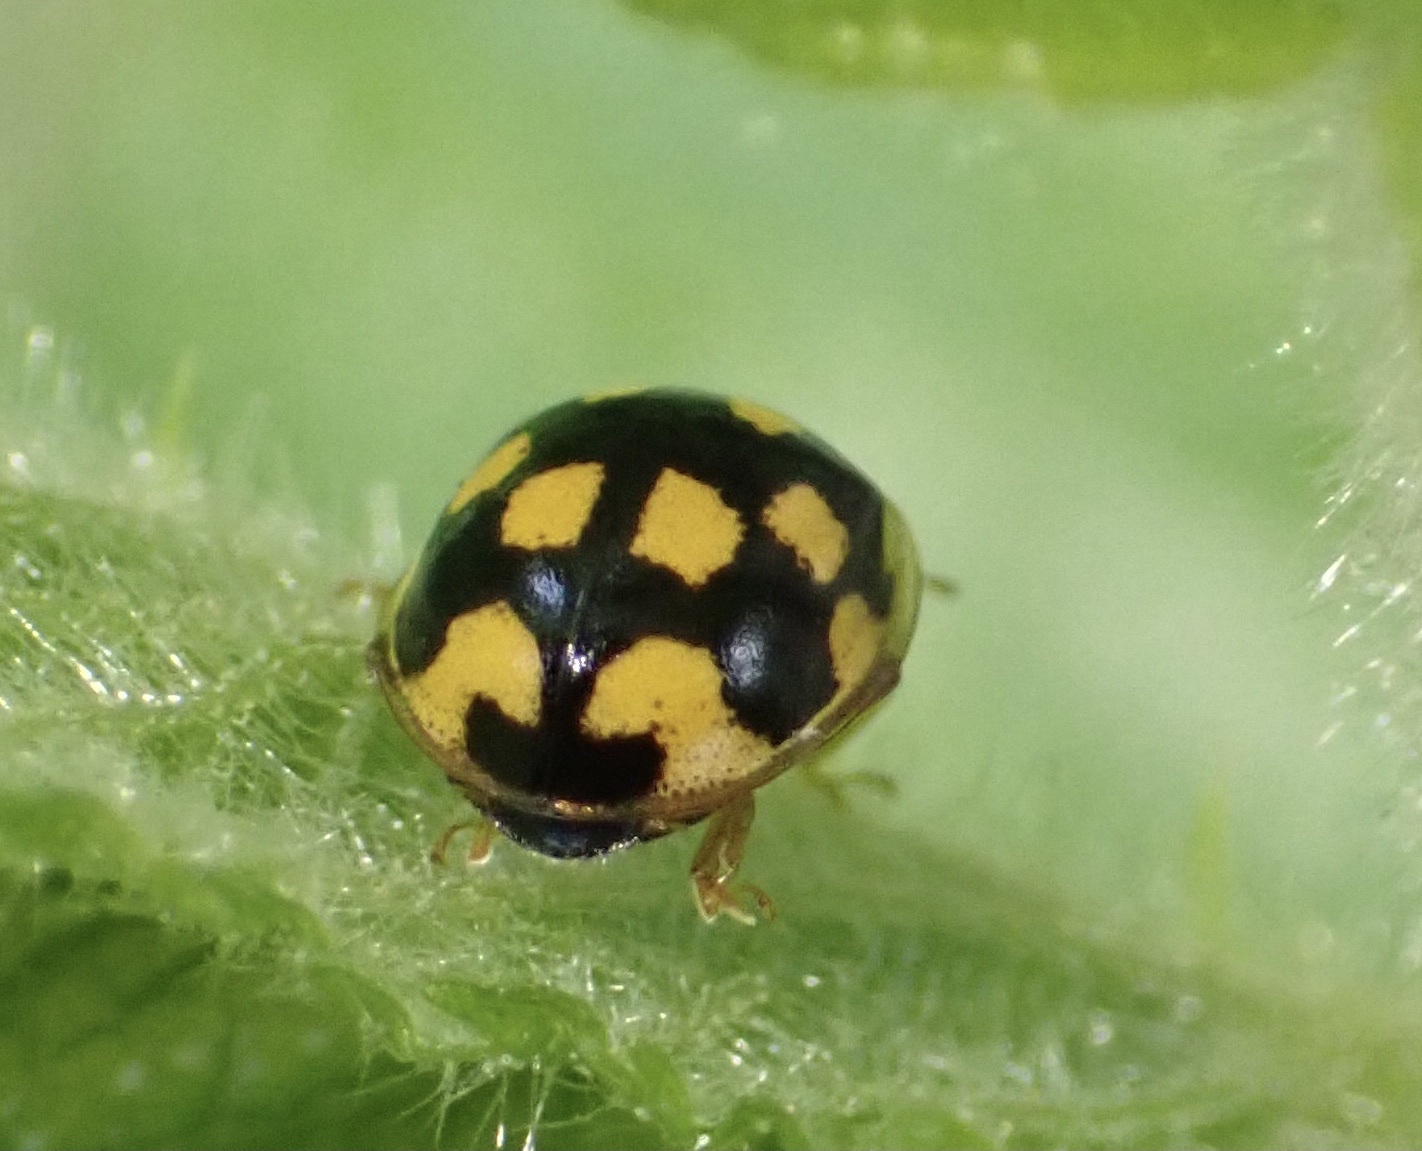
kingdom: Animalia
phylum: Arthropoda
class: Insecta
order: Coleoptera
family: Coccinellidae
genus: Propylaea
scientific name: Propylaea quatuordecimpunctata
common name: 14-spotted ladybird beetle
